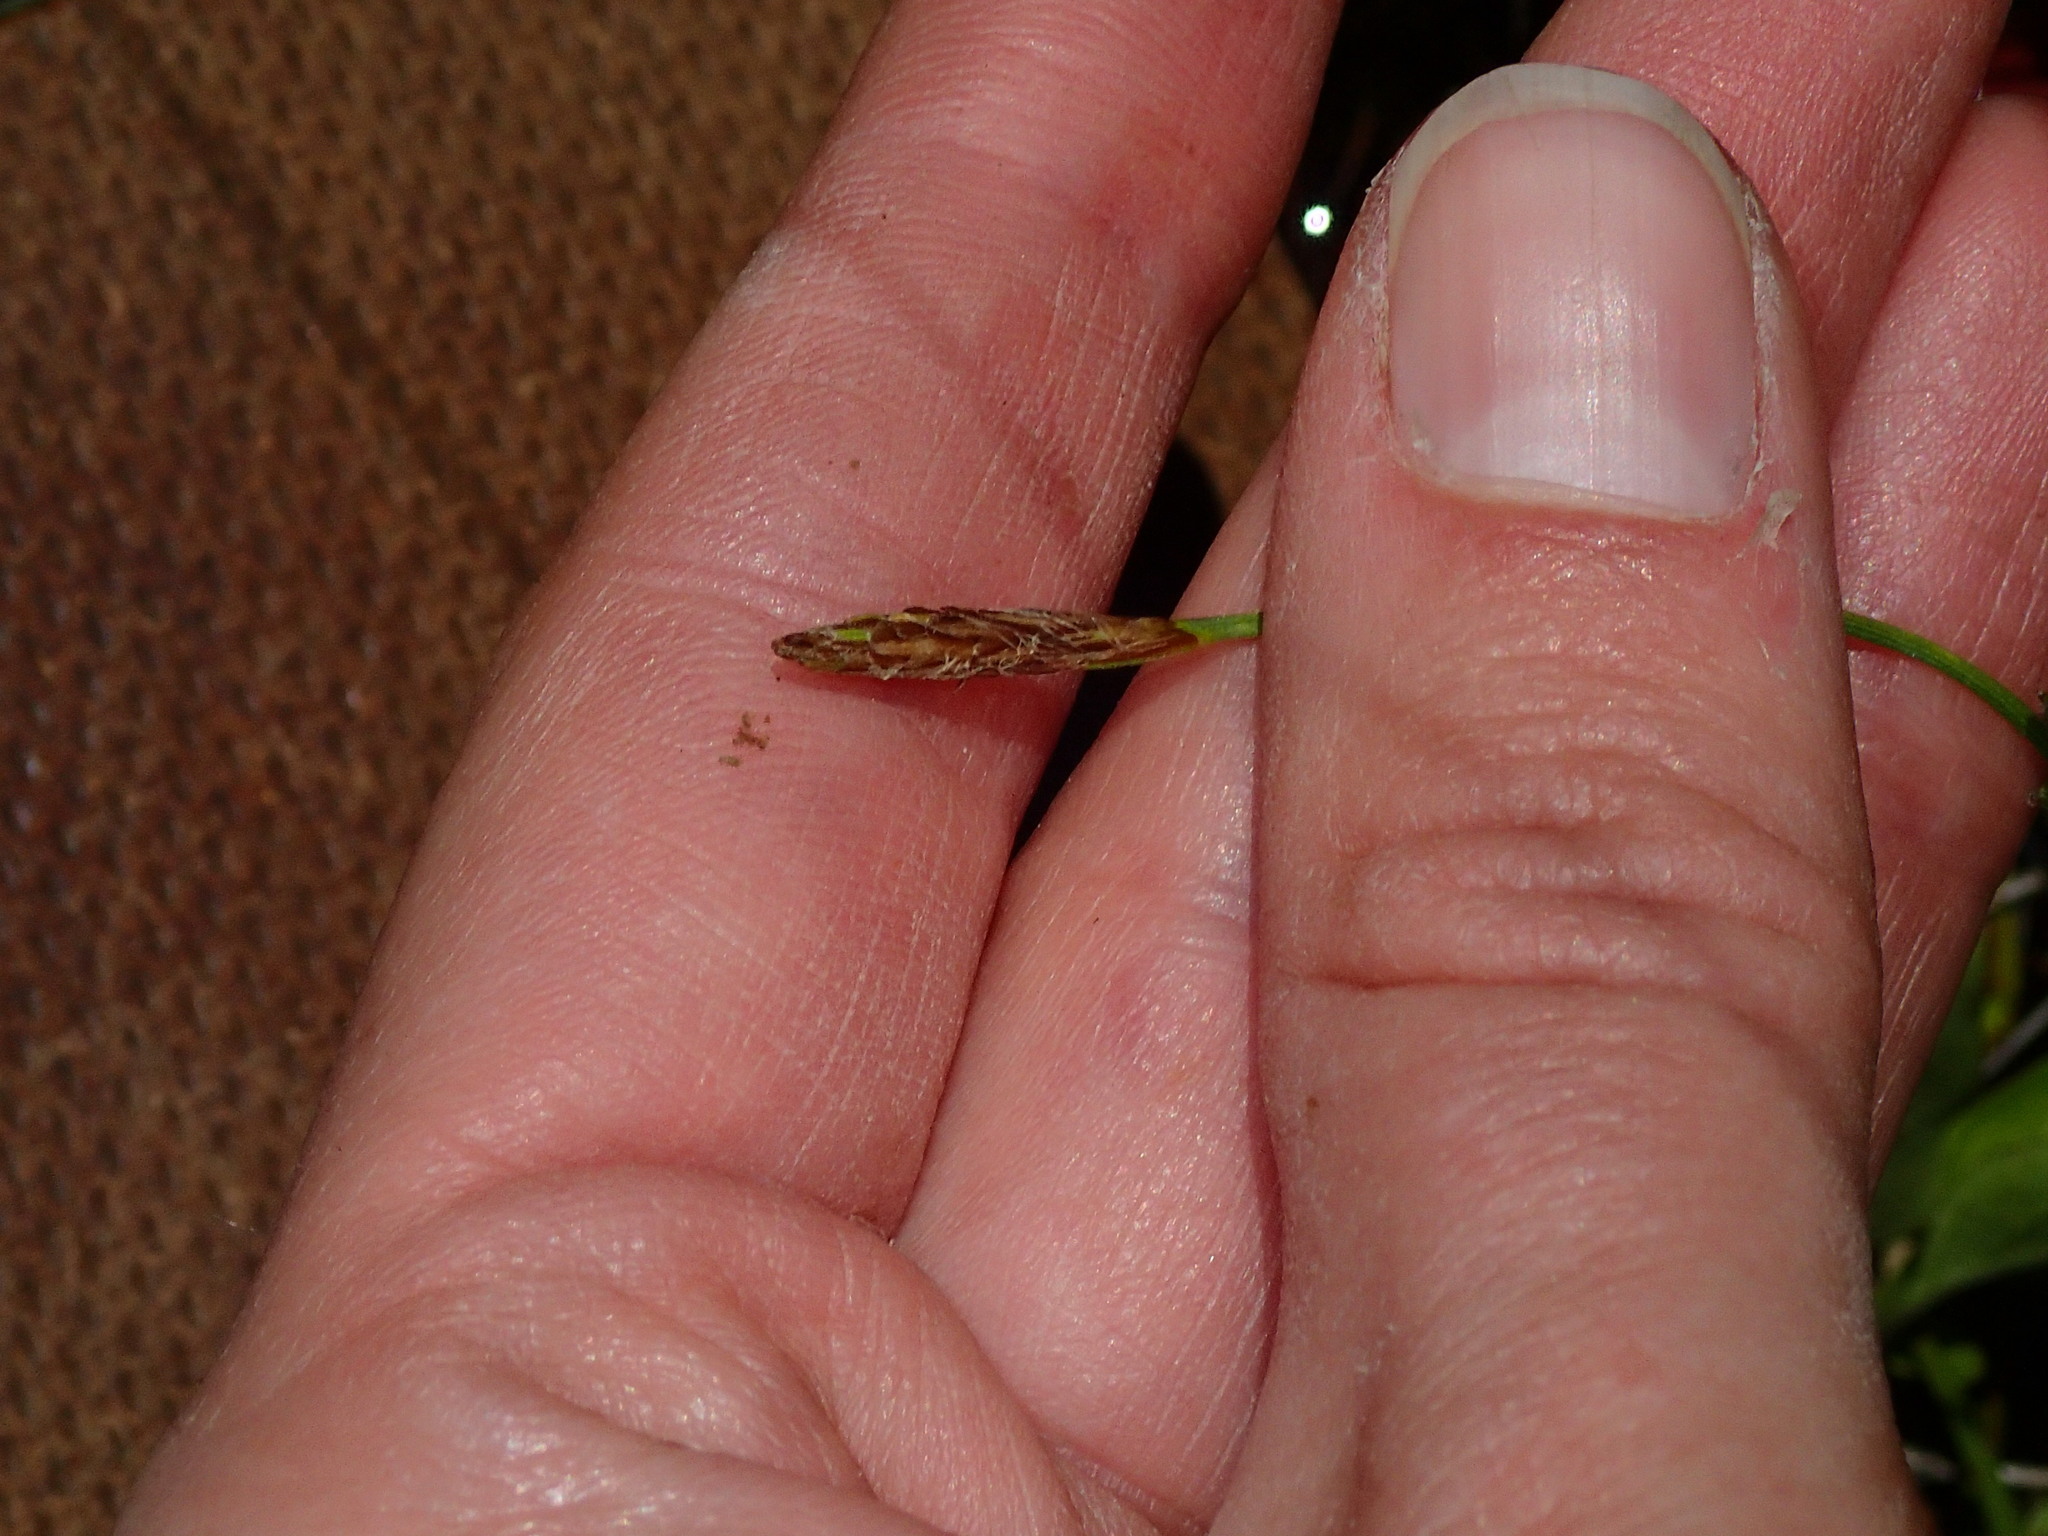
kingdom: Plantae
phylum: Tracheophyta
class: Liliopsida
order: Poales
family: Cyperaceae
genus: Carex
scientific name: Carex crawei
